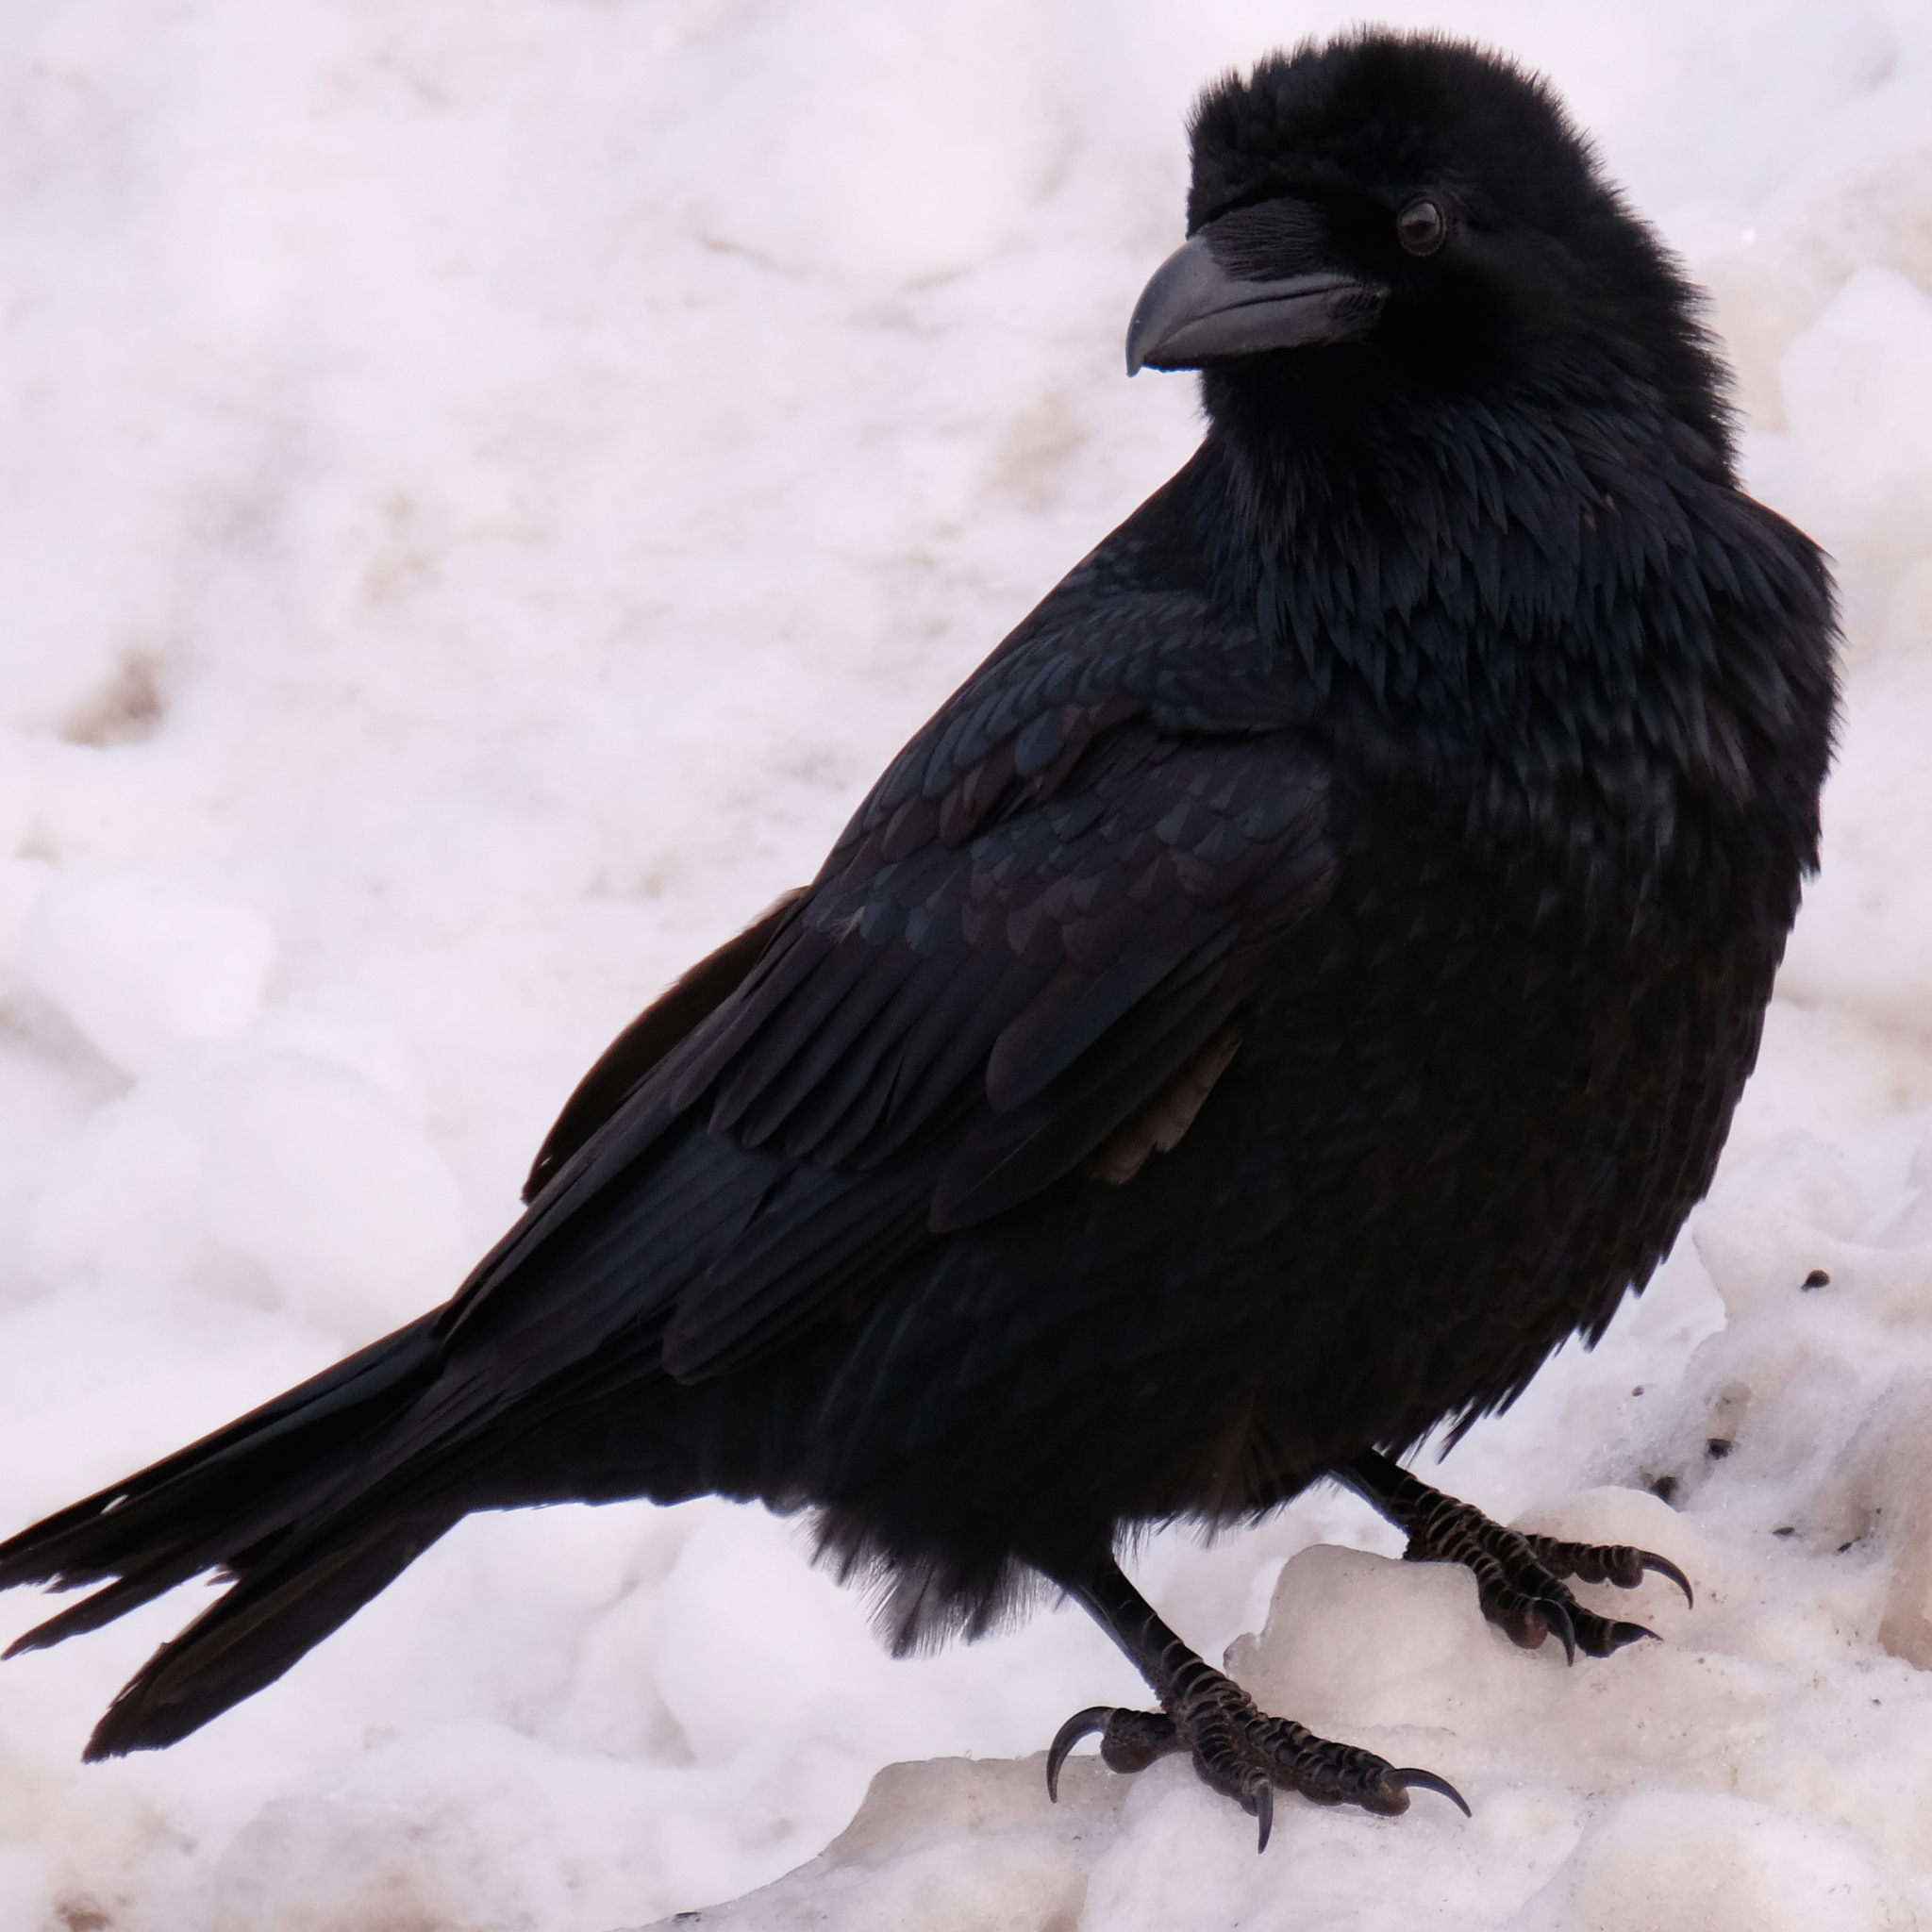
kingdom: Animalia
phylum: Chordata
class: Aves
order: Passeriformes
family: Corvidae
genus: Corvus
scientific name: Corvus corax
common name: Common raven
